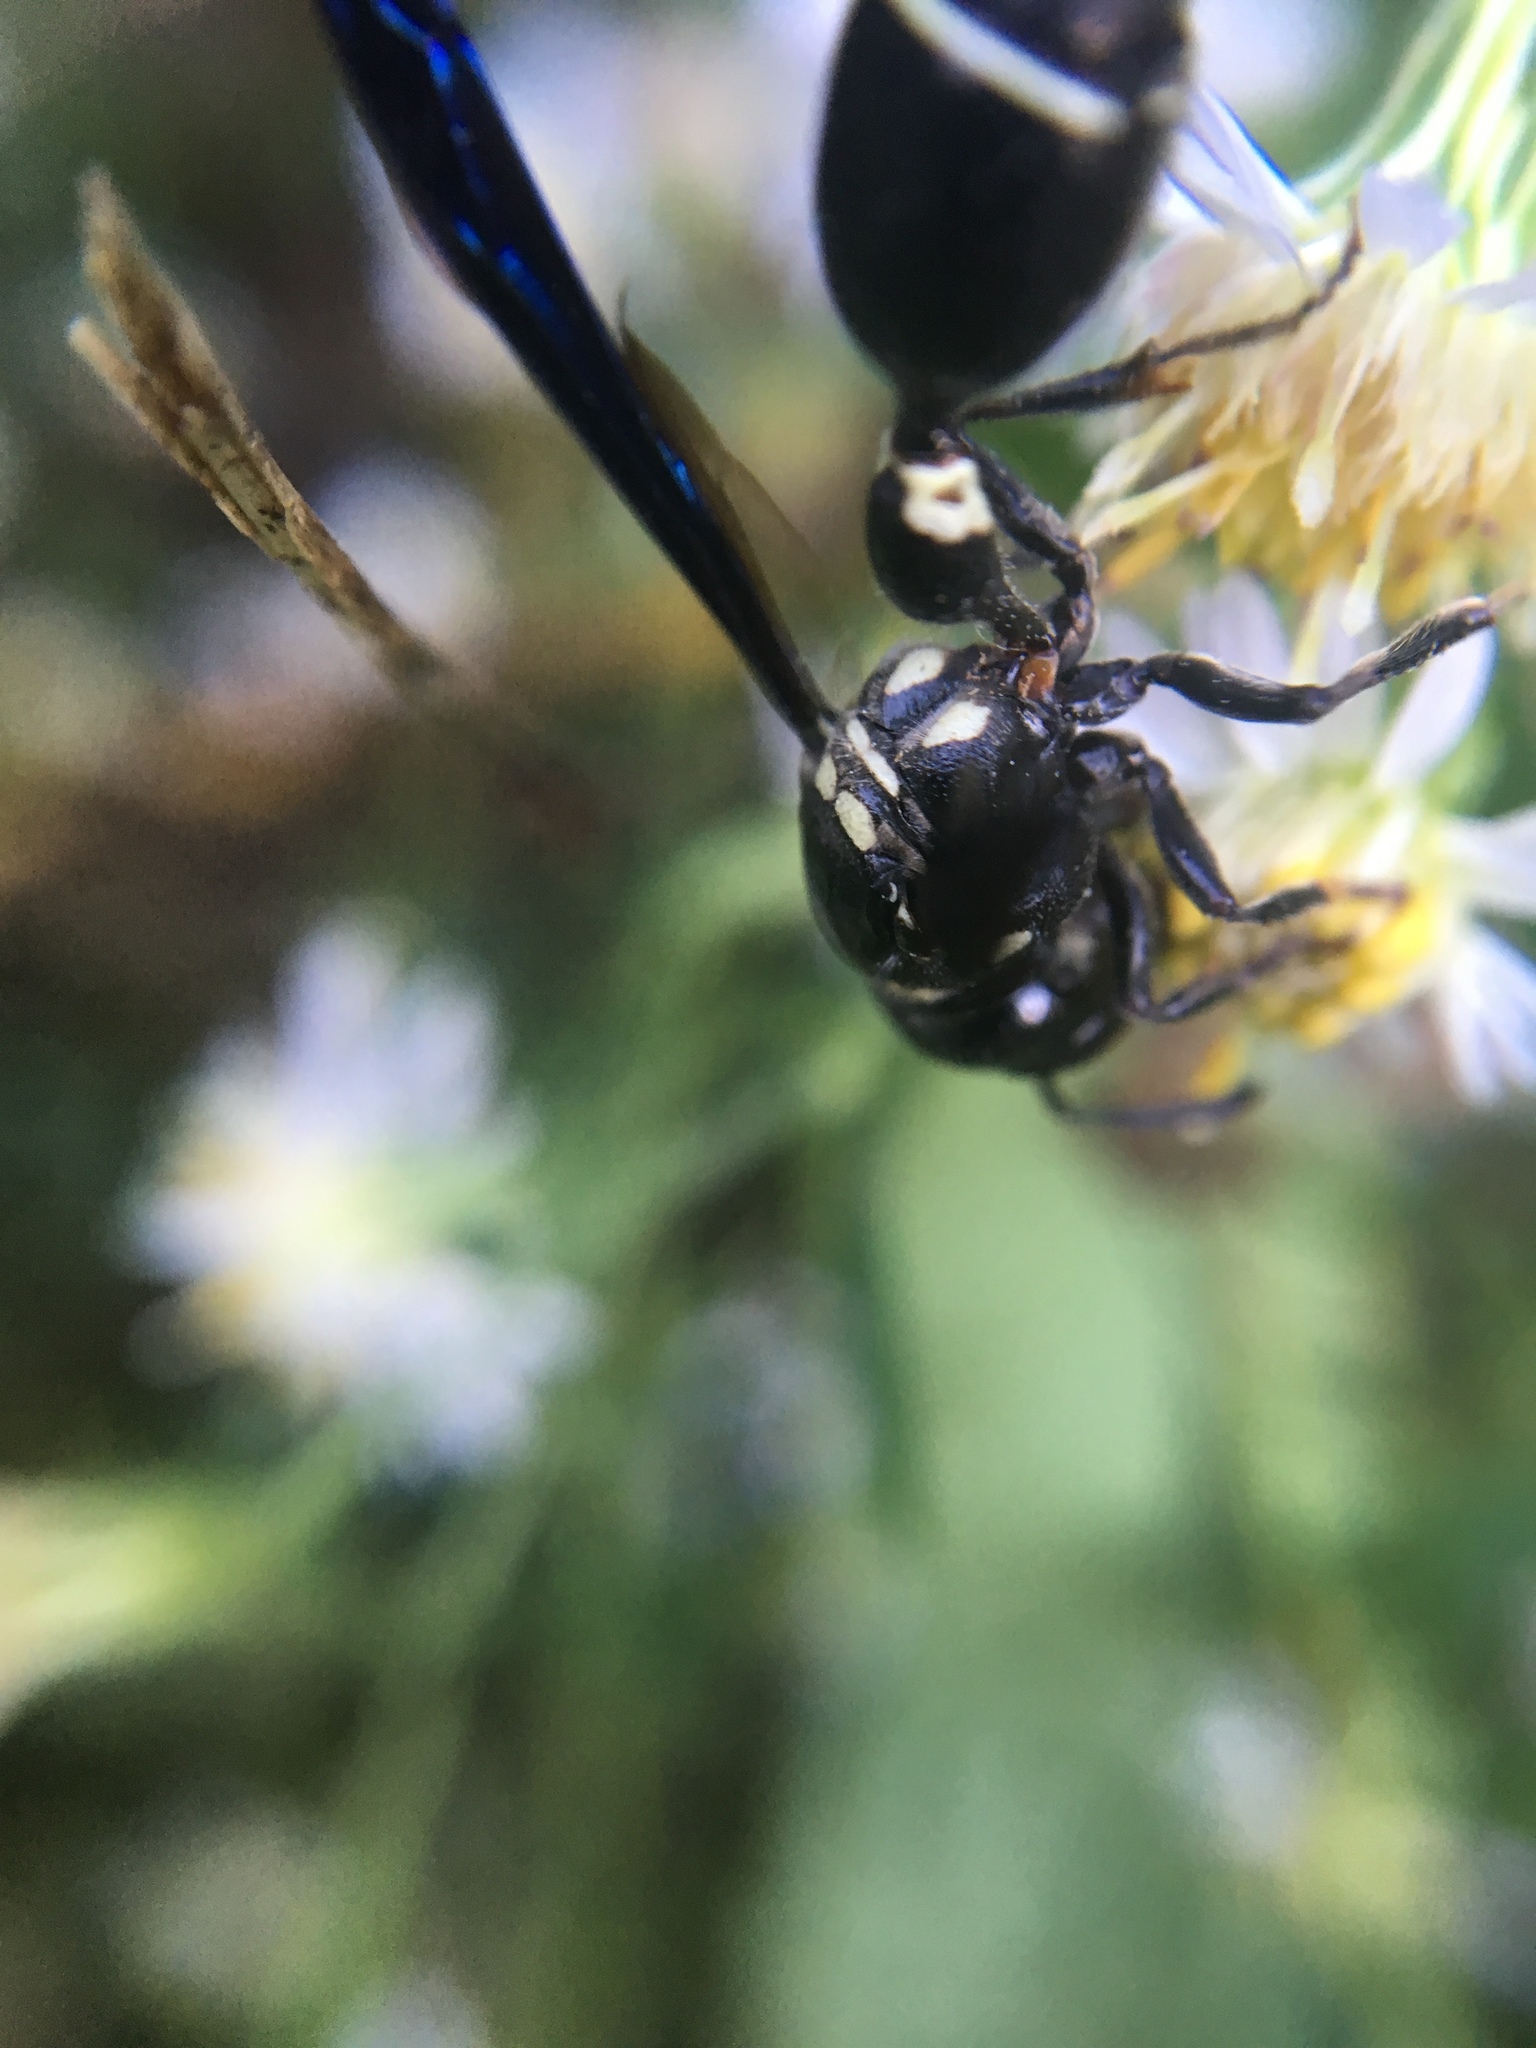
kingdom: Animalia
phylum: Arthropoda
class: Insecta
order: Hymenoptera
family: Eumenidae
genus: Zethus
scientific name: Zethus spinipes
